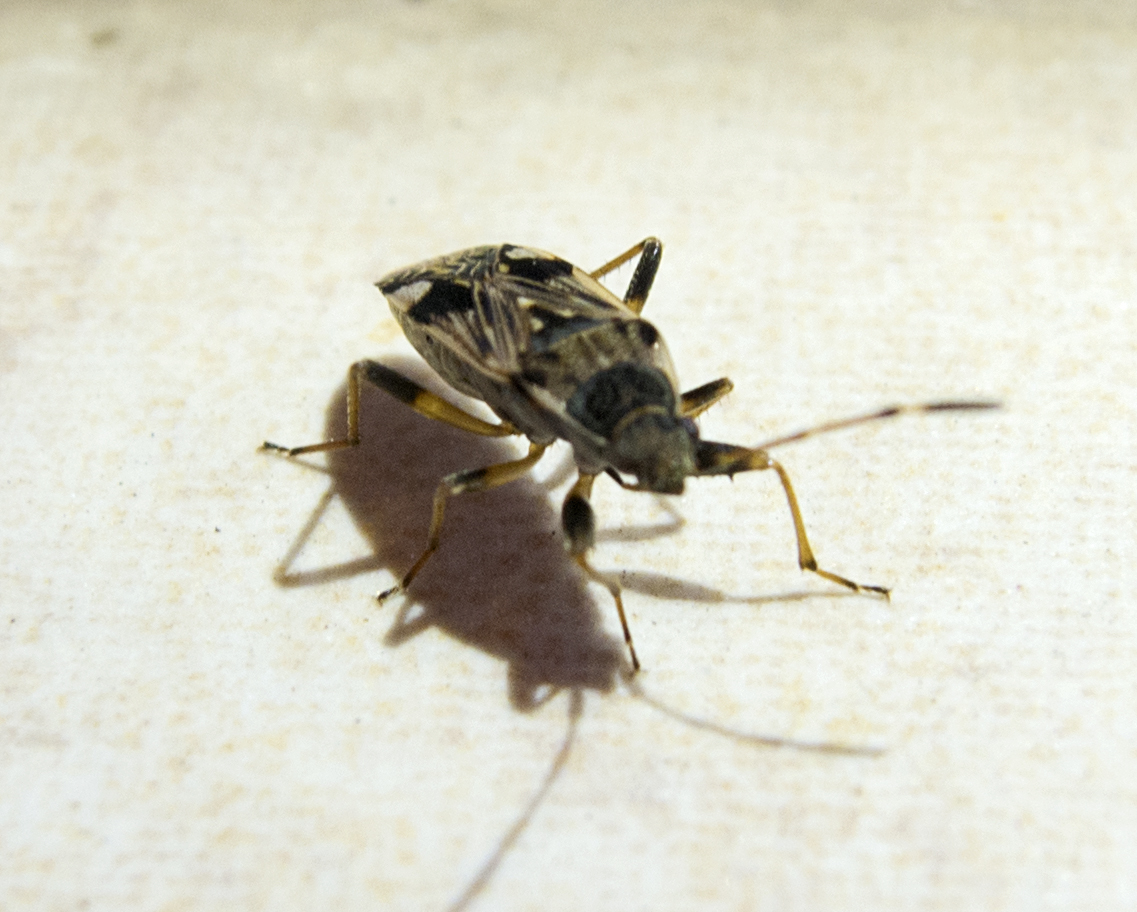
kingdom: Animalia
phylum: Arthropoda
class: Insecta
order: Hemiptera
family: Rhyparochromidae
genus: Beosus
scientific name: Beosus maritimus
